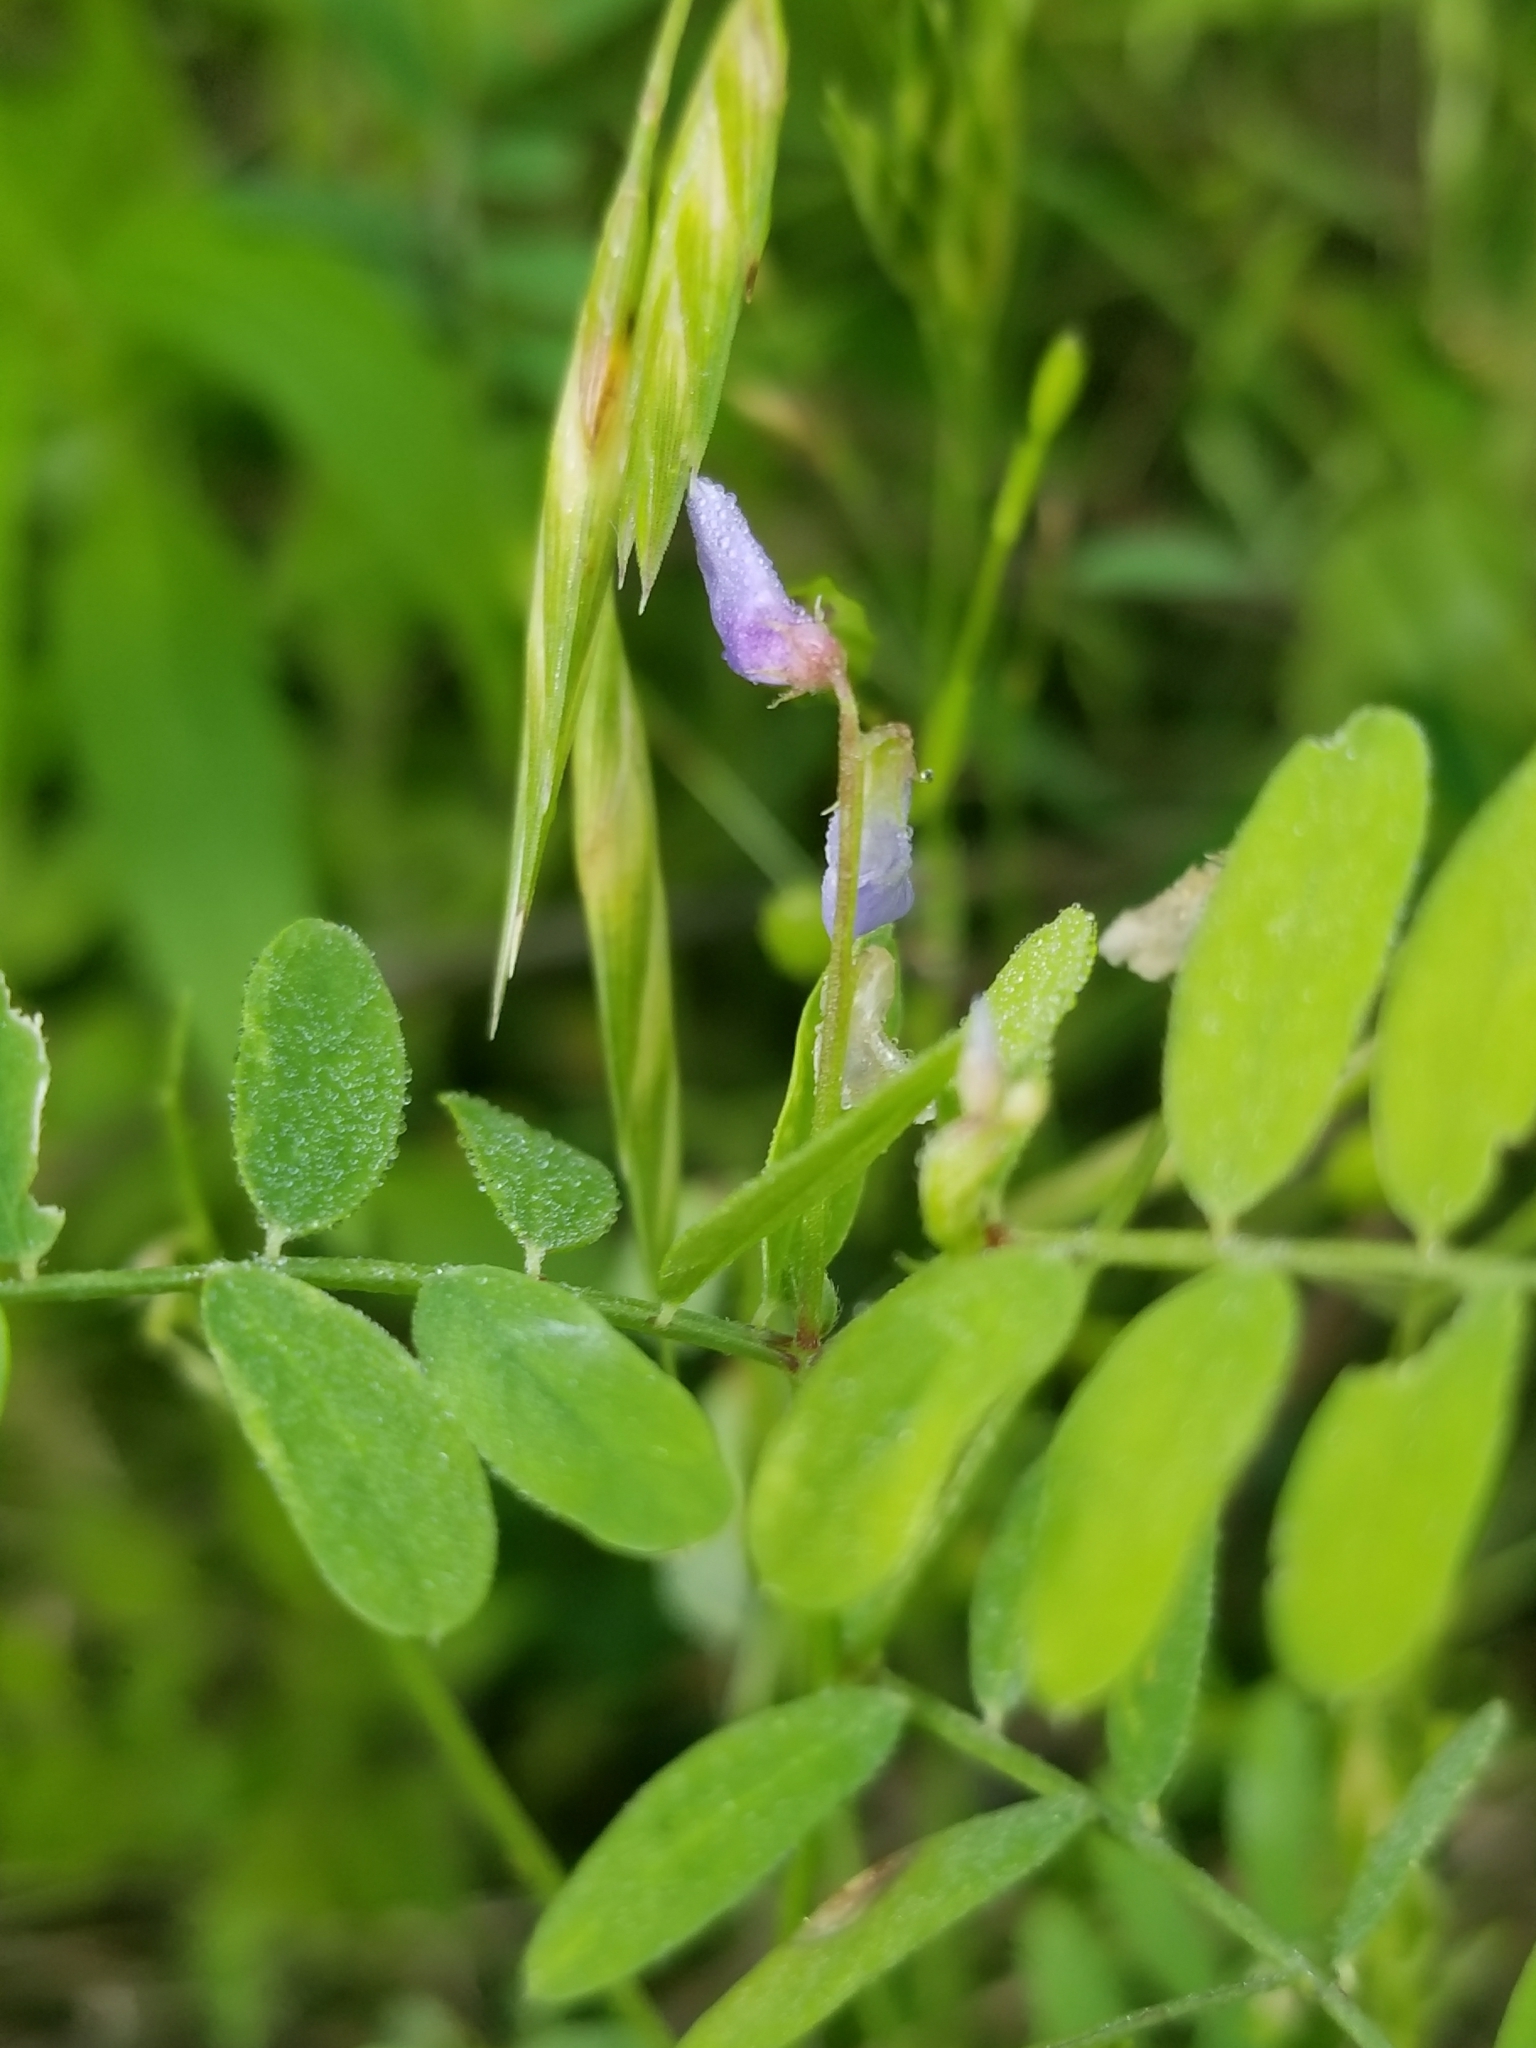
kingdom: Plantae
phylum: Tracheophyta
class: Magnoliopsida
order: Fabales
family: Fabaceae
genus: Vicia
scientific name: Vicia ludoviciana
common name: Louisiana vetch
